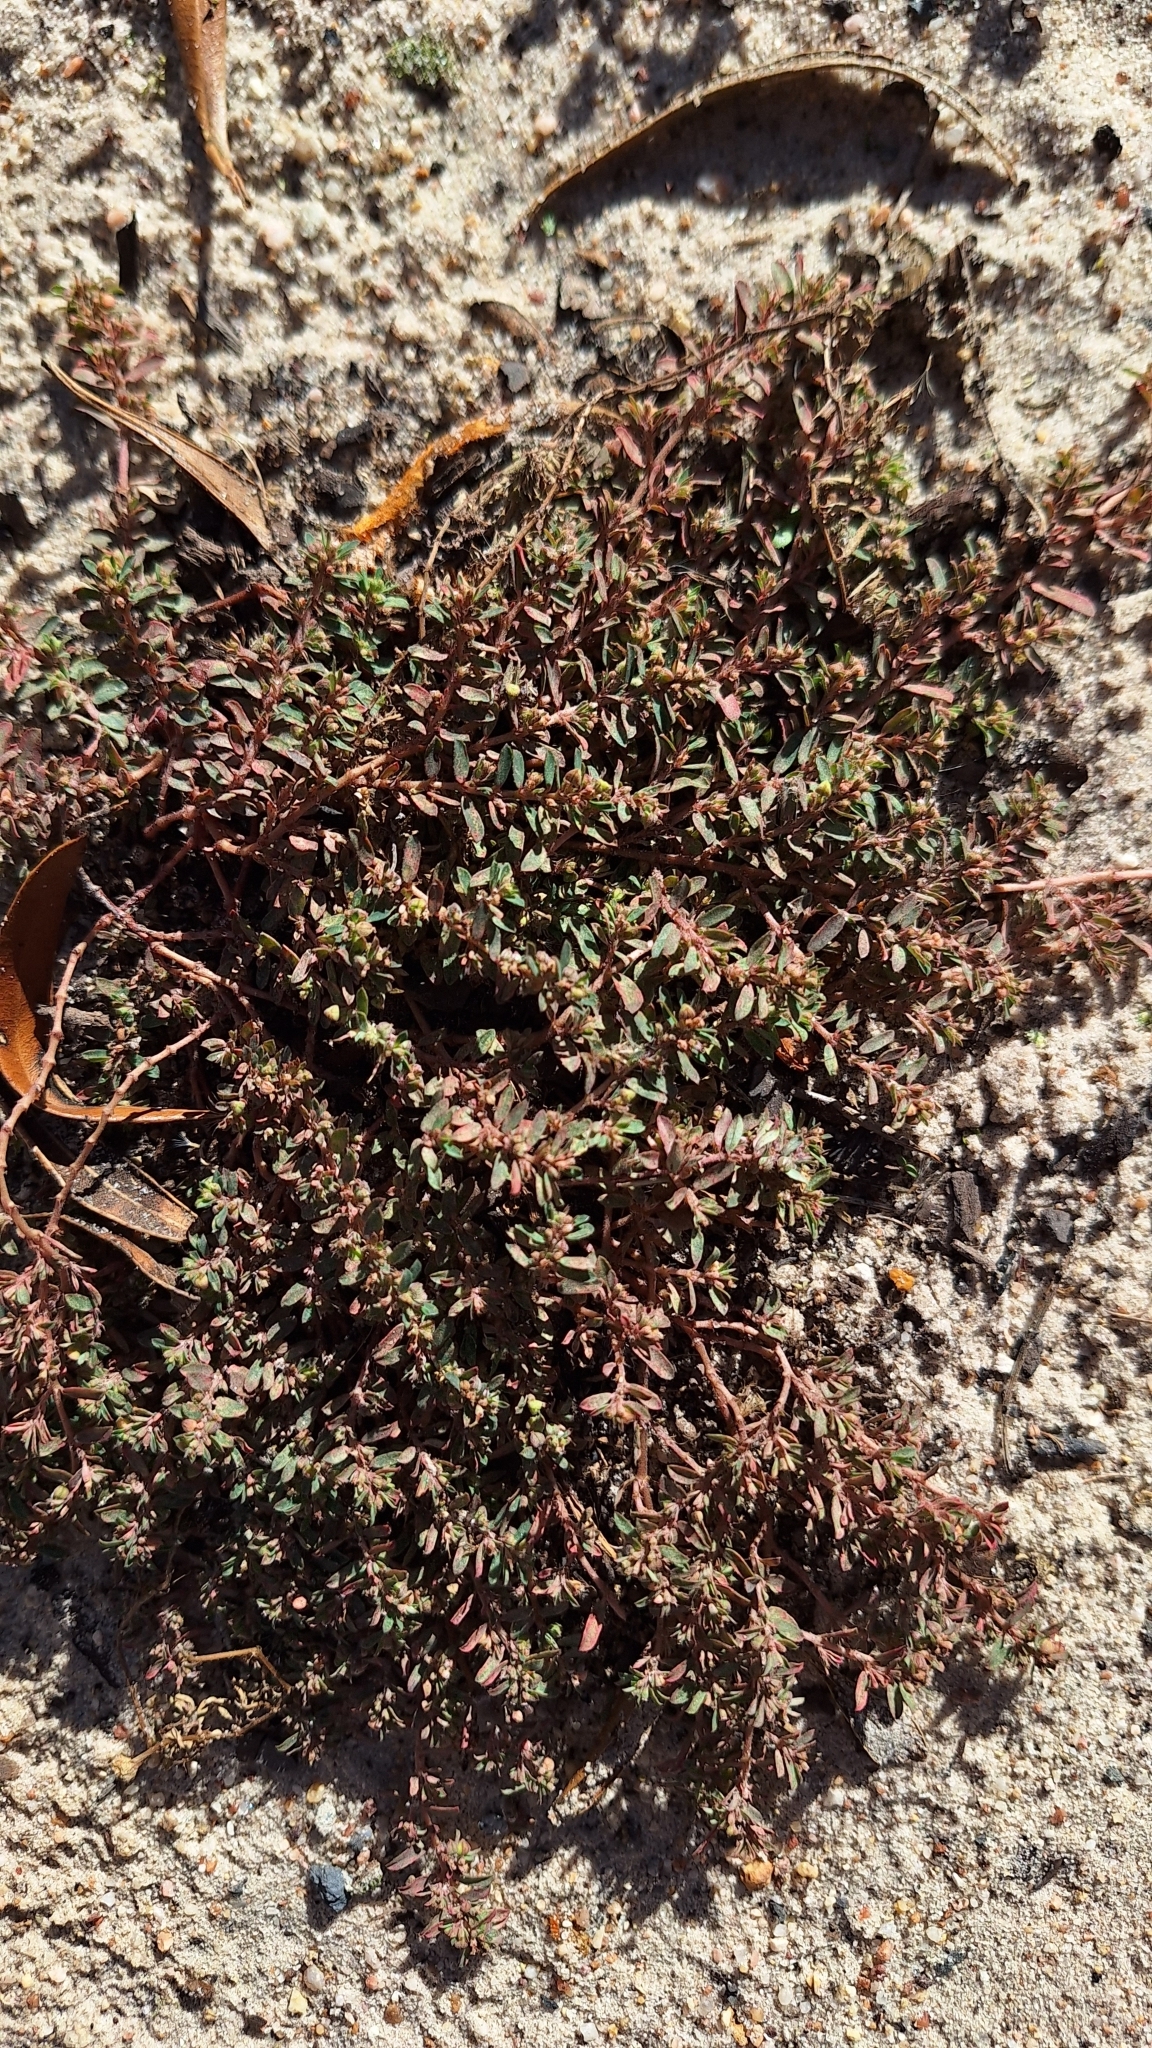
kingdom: Plantae
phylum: Tracheophyta
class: Magnoliopsida
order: Malpighiales
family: Euphorbiaceae
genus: Euphorbia
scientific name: Euphorbia maculata
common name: Spotted spurge
